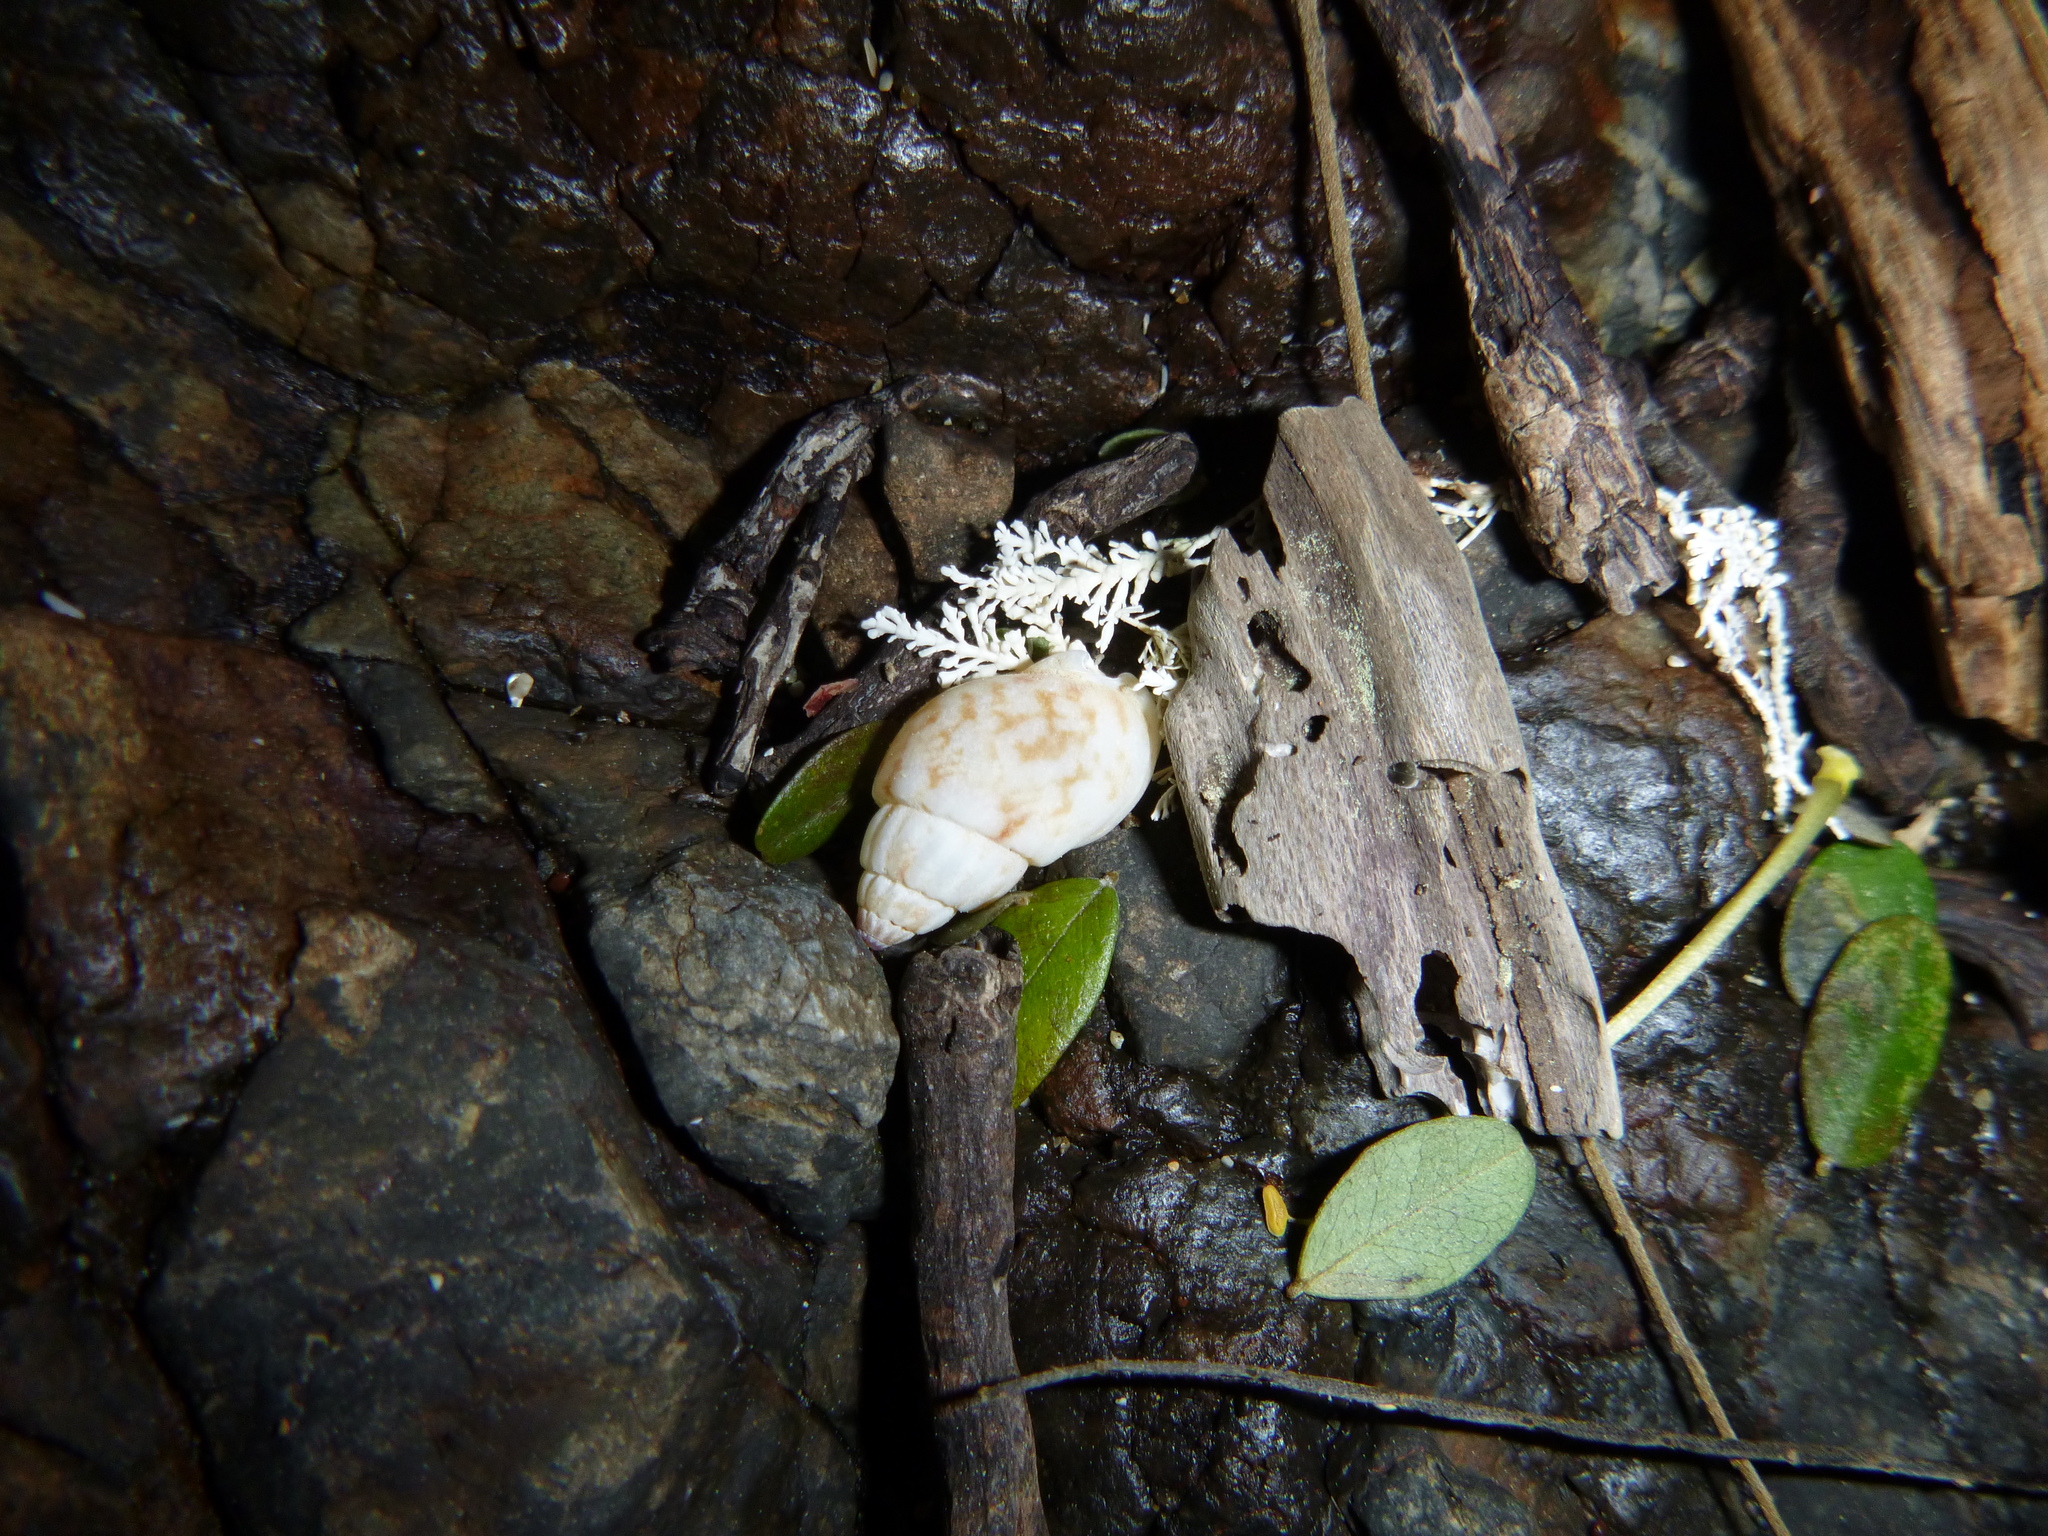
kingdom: Animalia
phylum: Mollusca
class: Gastropoda
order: Neogastropoda
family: Nassariidae
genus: Nassarius
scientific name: Nassarius spiratus
